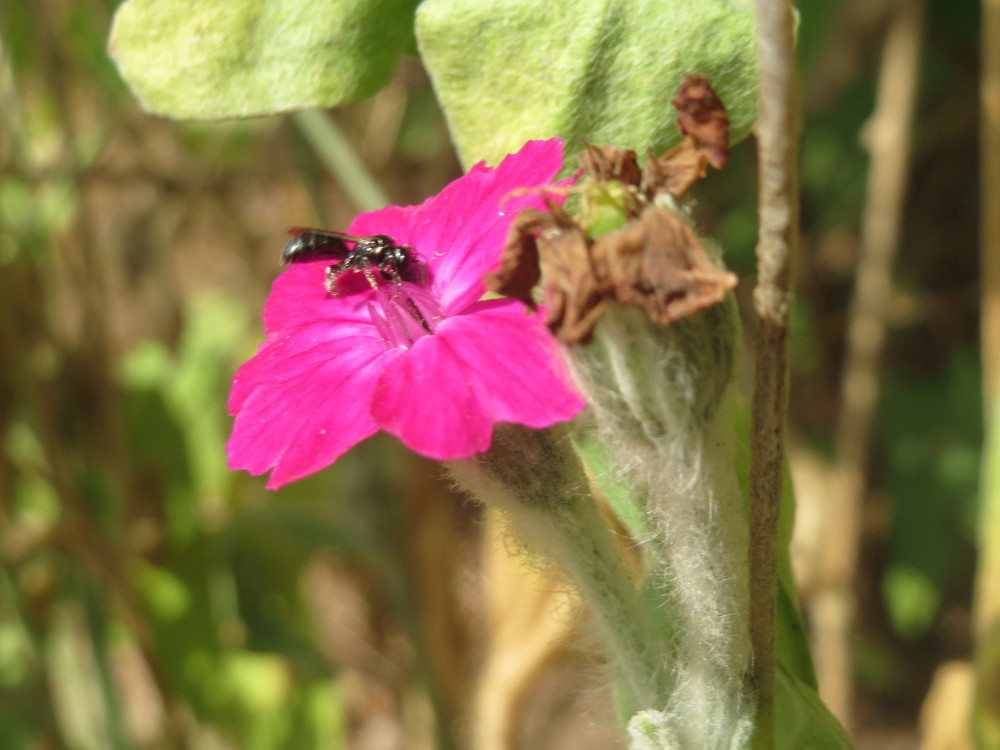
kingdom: Plantae
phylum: Tracheophyta
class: Magnoliopsida
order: Caryophyllales
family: Caryophyllaceae
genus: Silene
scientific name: Silene coronaria
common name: Rose campion
